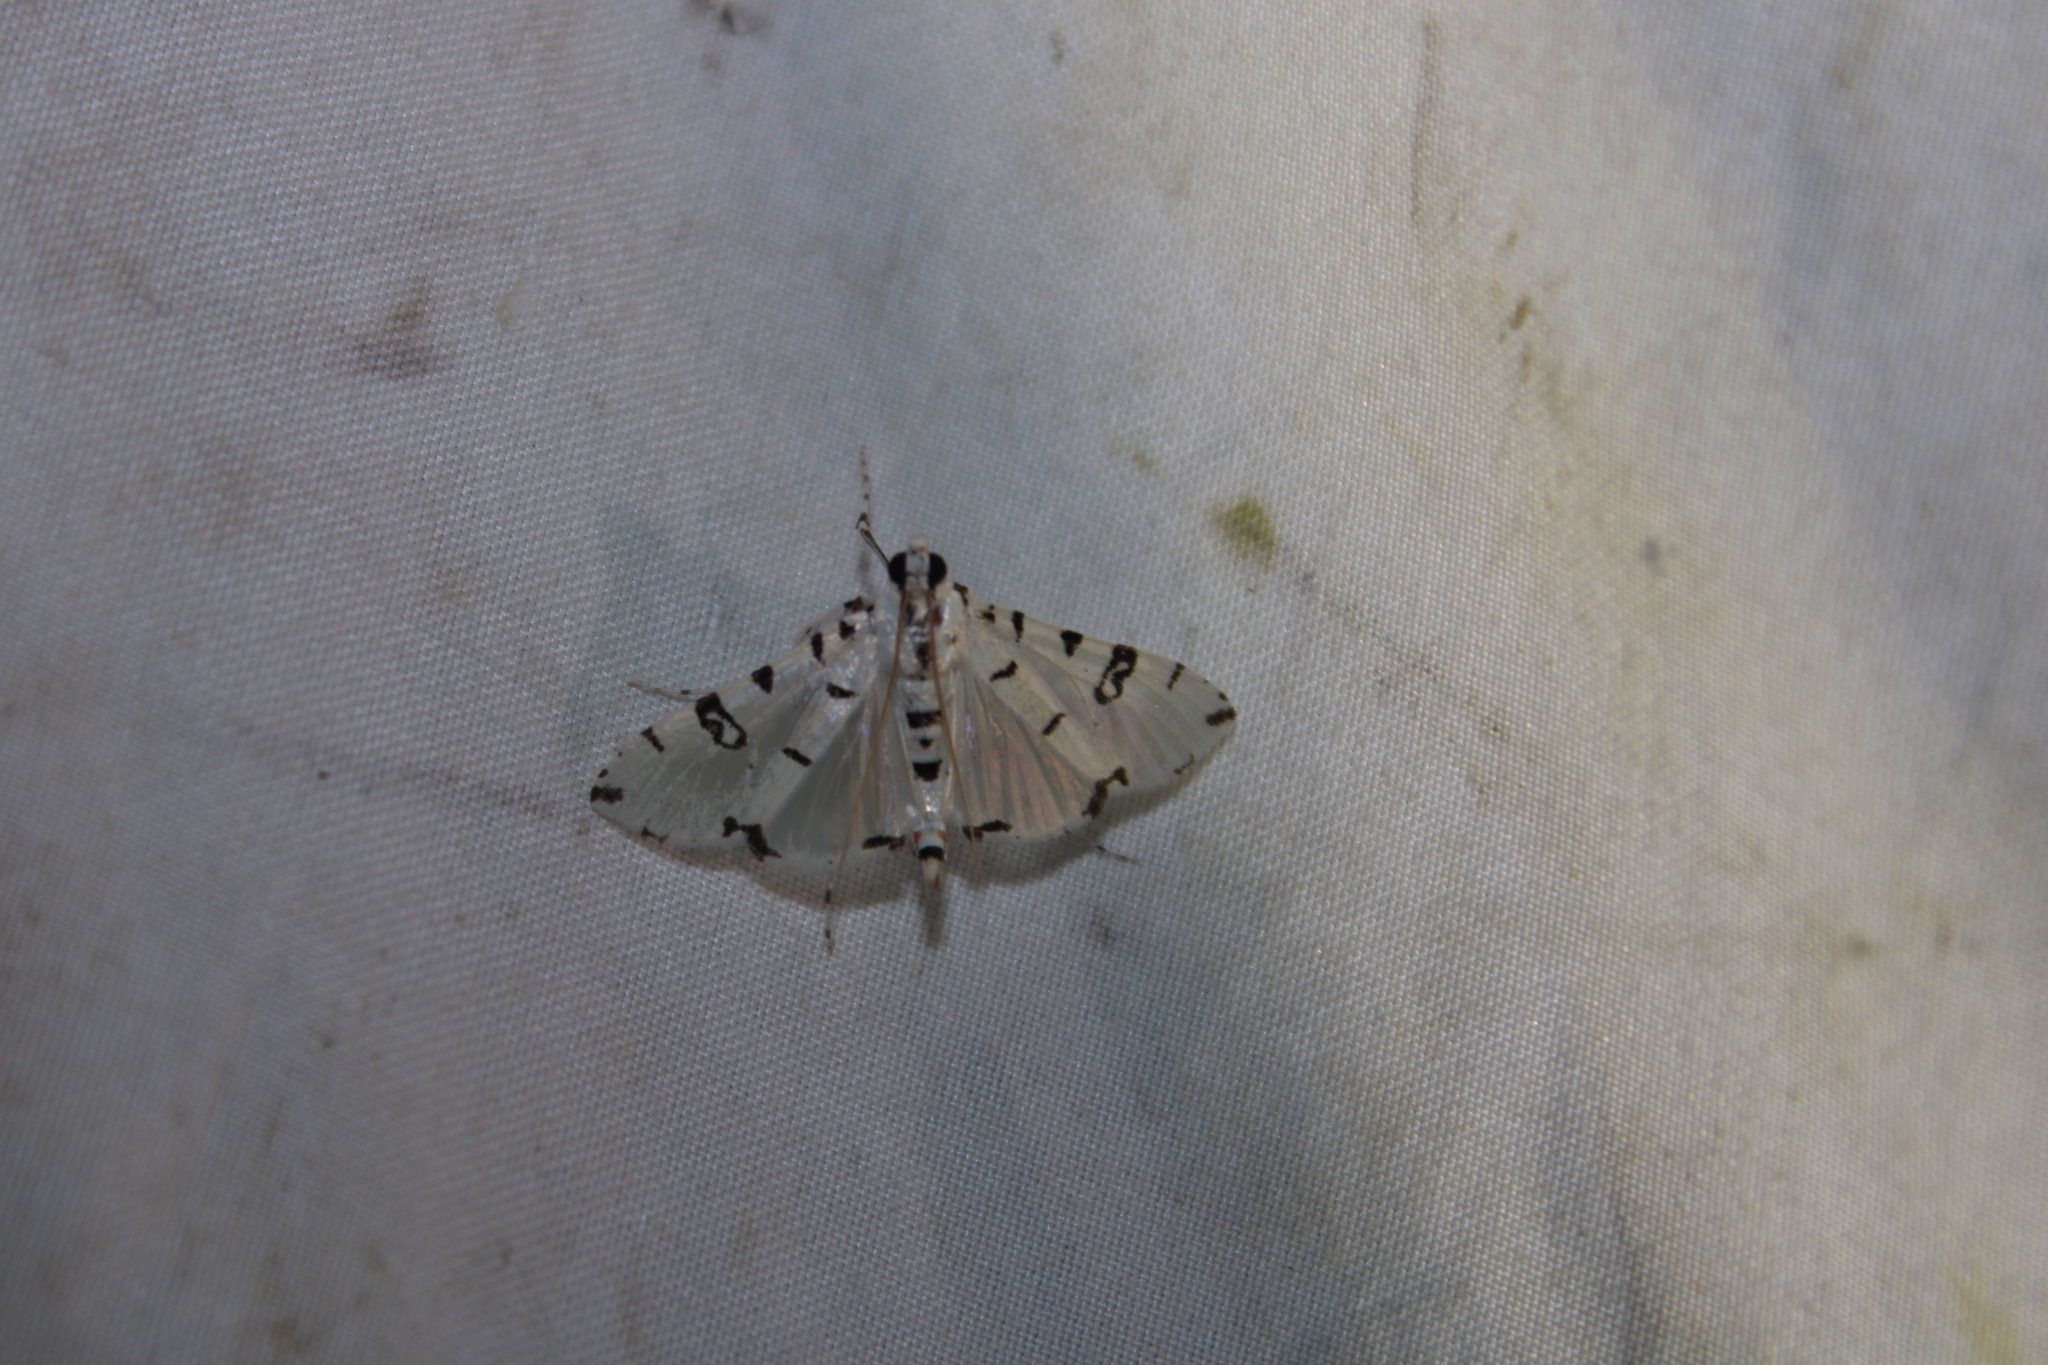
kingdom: Animalia
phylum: Arthropoda
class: Insecta
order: Lepidoptera
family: Crambidae
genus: Conchylodes
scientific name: Conchylodes diphteralis
